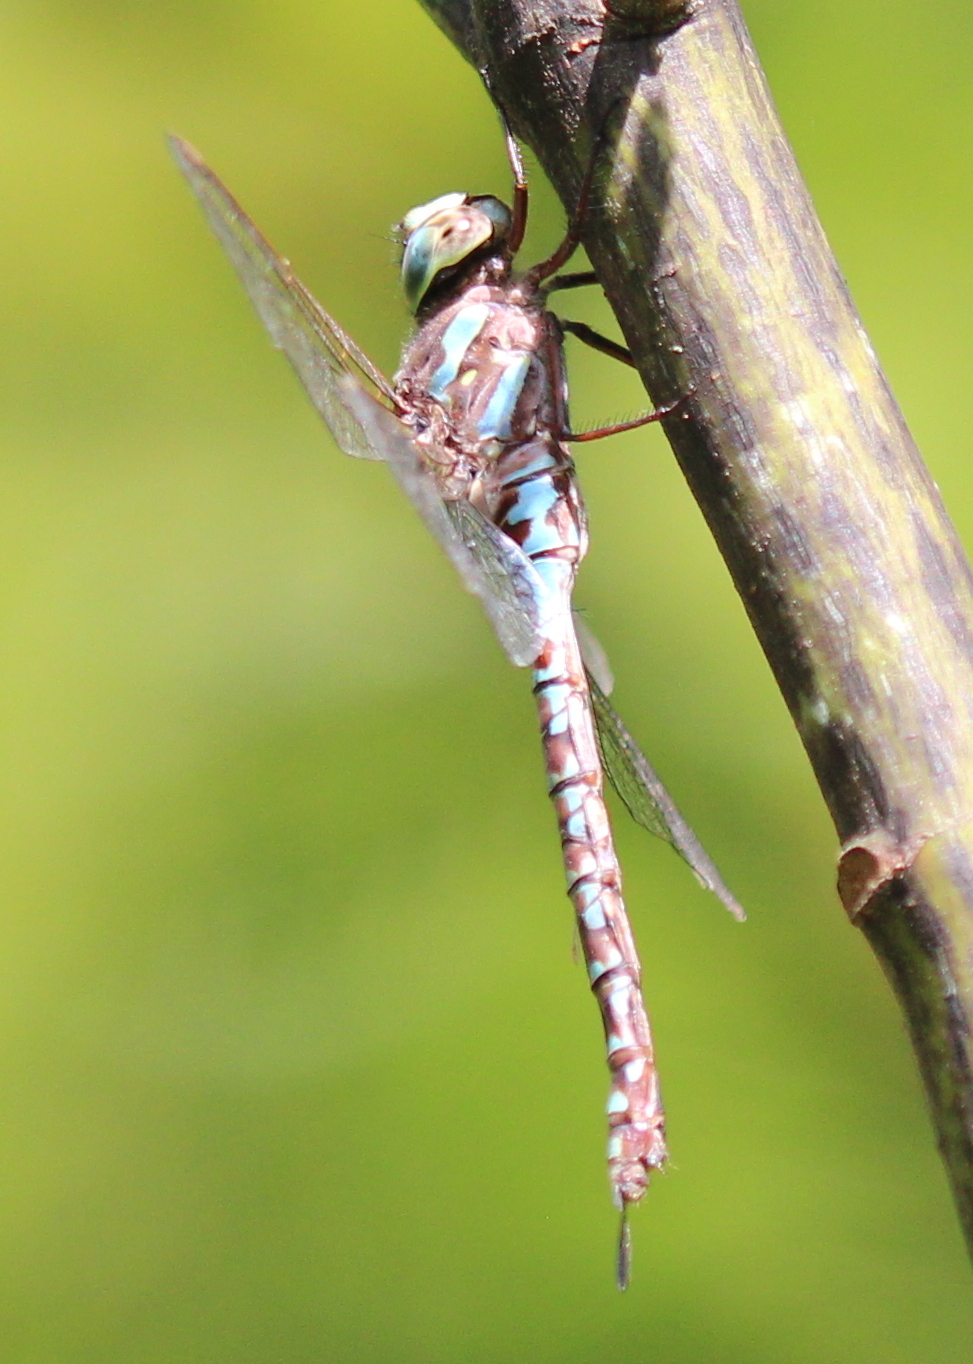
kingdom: Animalia
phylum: Arthropoda
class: Insecta
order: Odonata
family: Aeshnidae
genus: Aeshna
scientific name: Aeshna canadensis
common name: Canada darner
